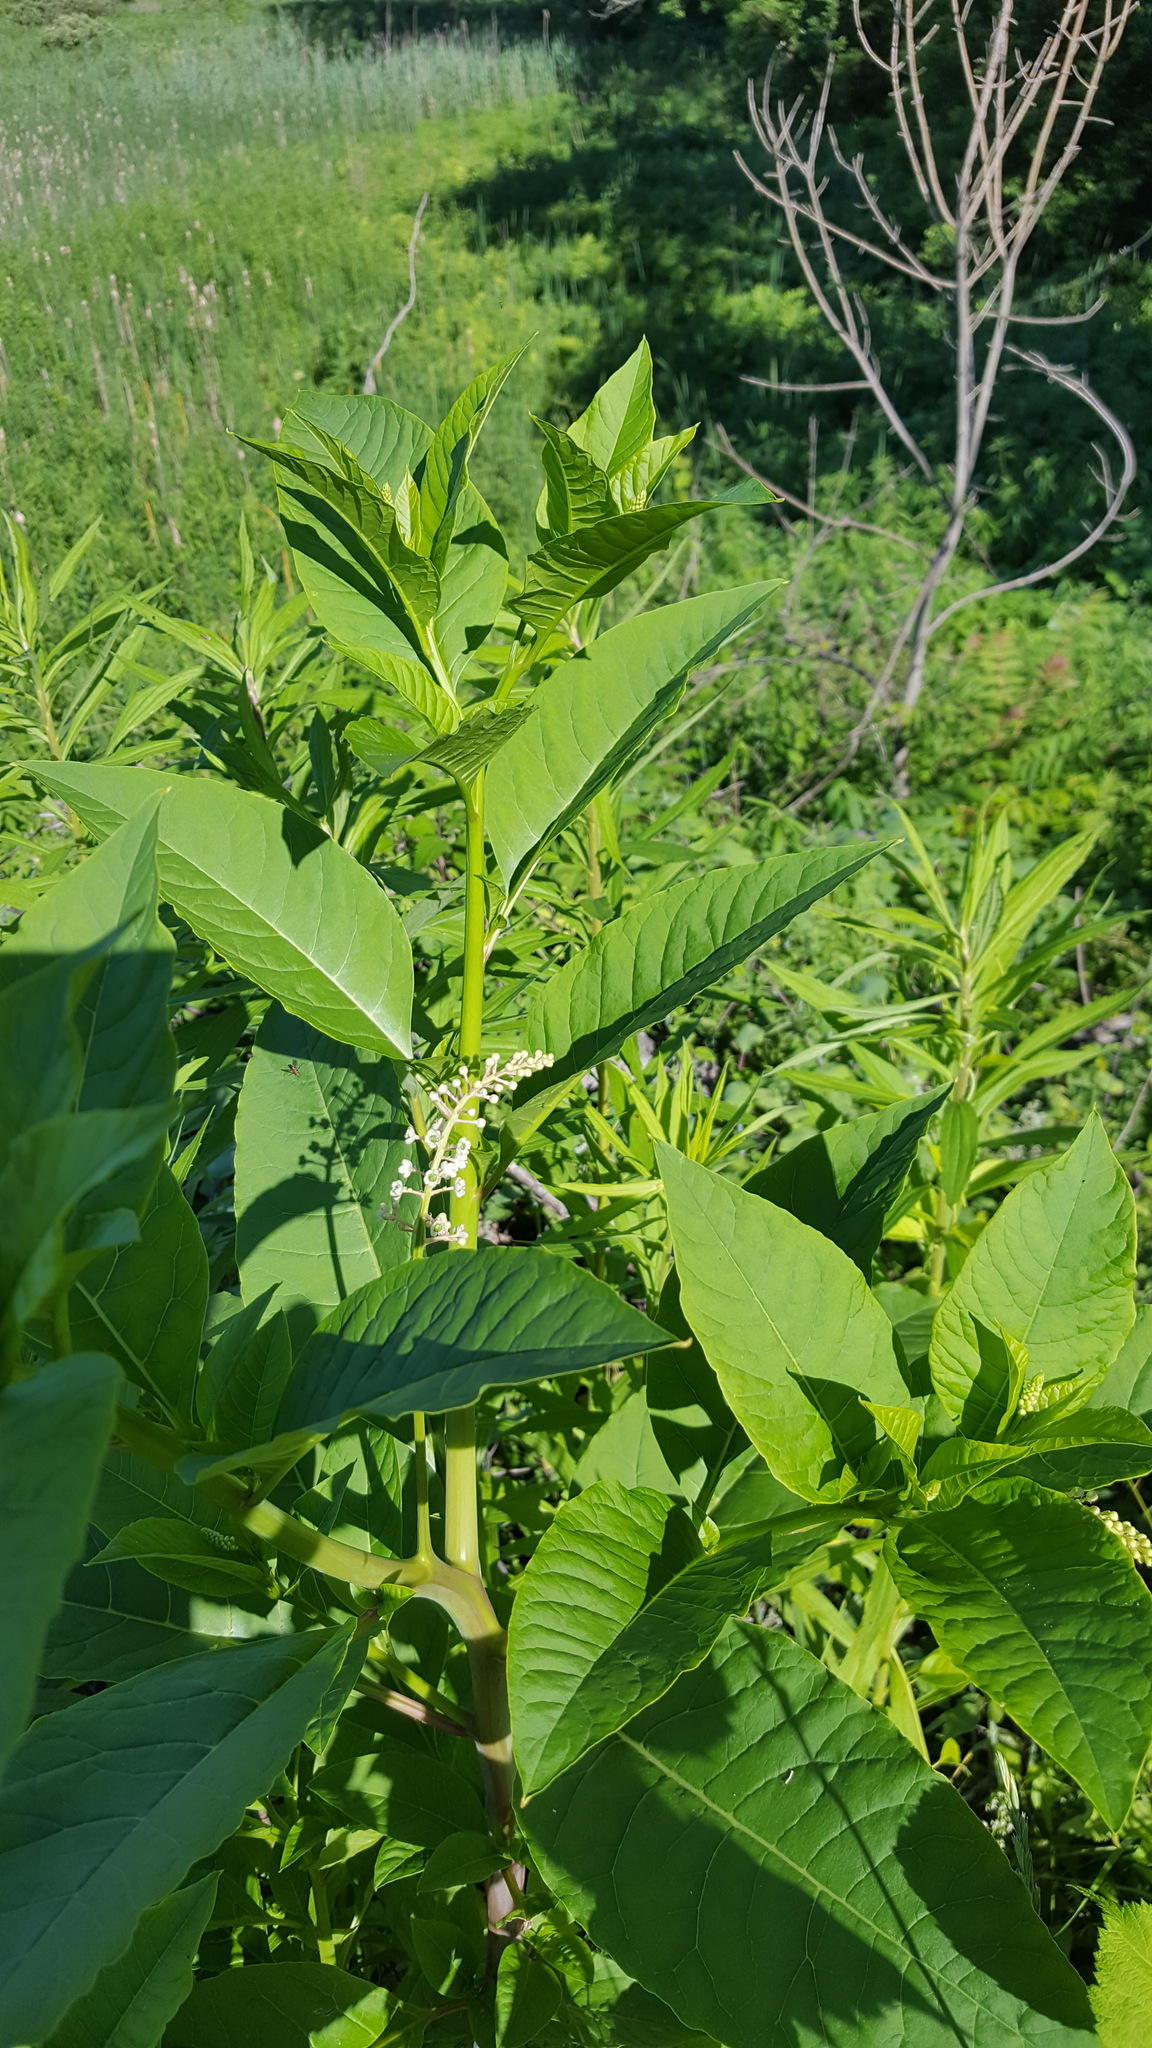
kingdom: Plantae
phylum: Tracheophyta
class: Magnoliopsida
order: Caryophyllales
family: Phytolaccaceae
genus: Phytolacca
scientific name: Phytolacca americana
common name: American pokeweed
